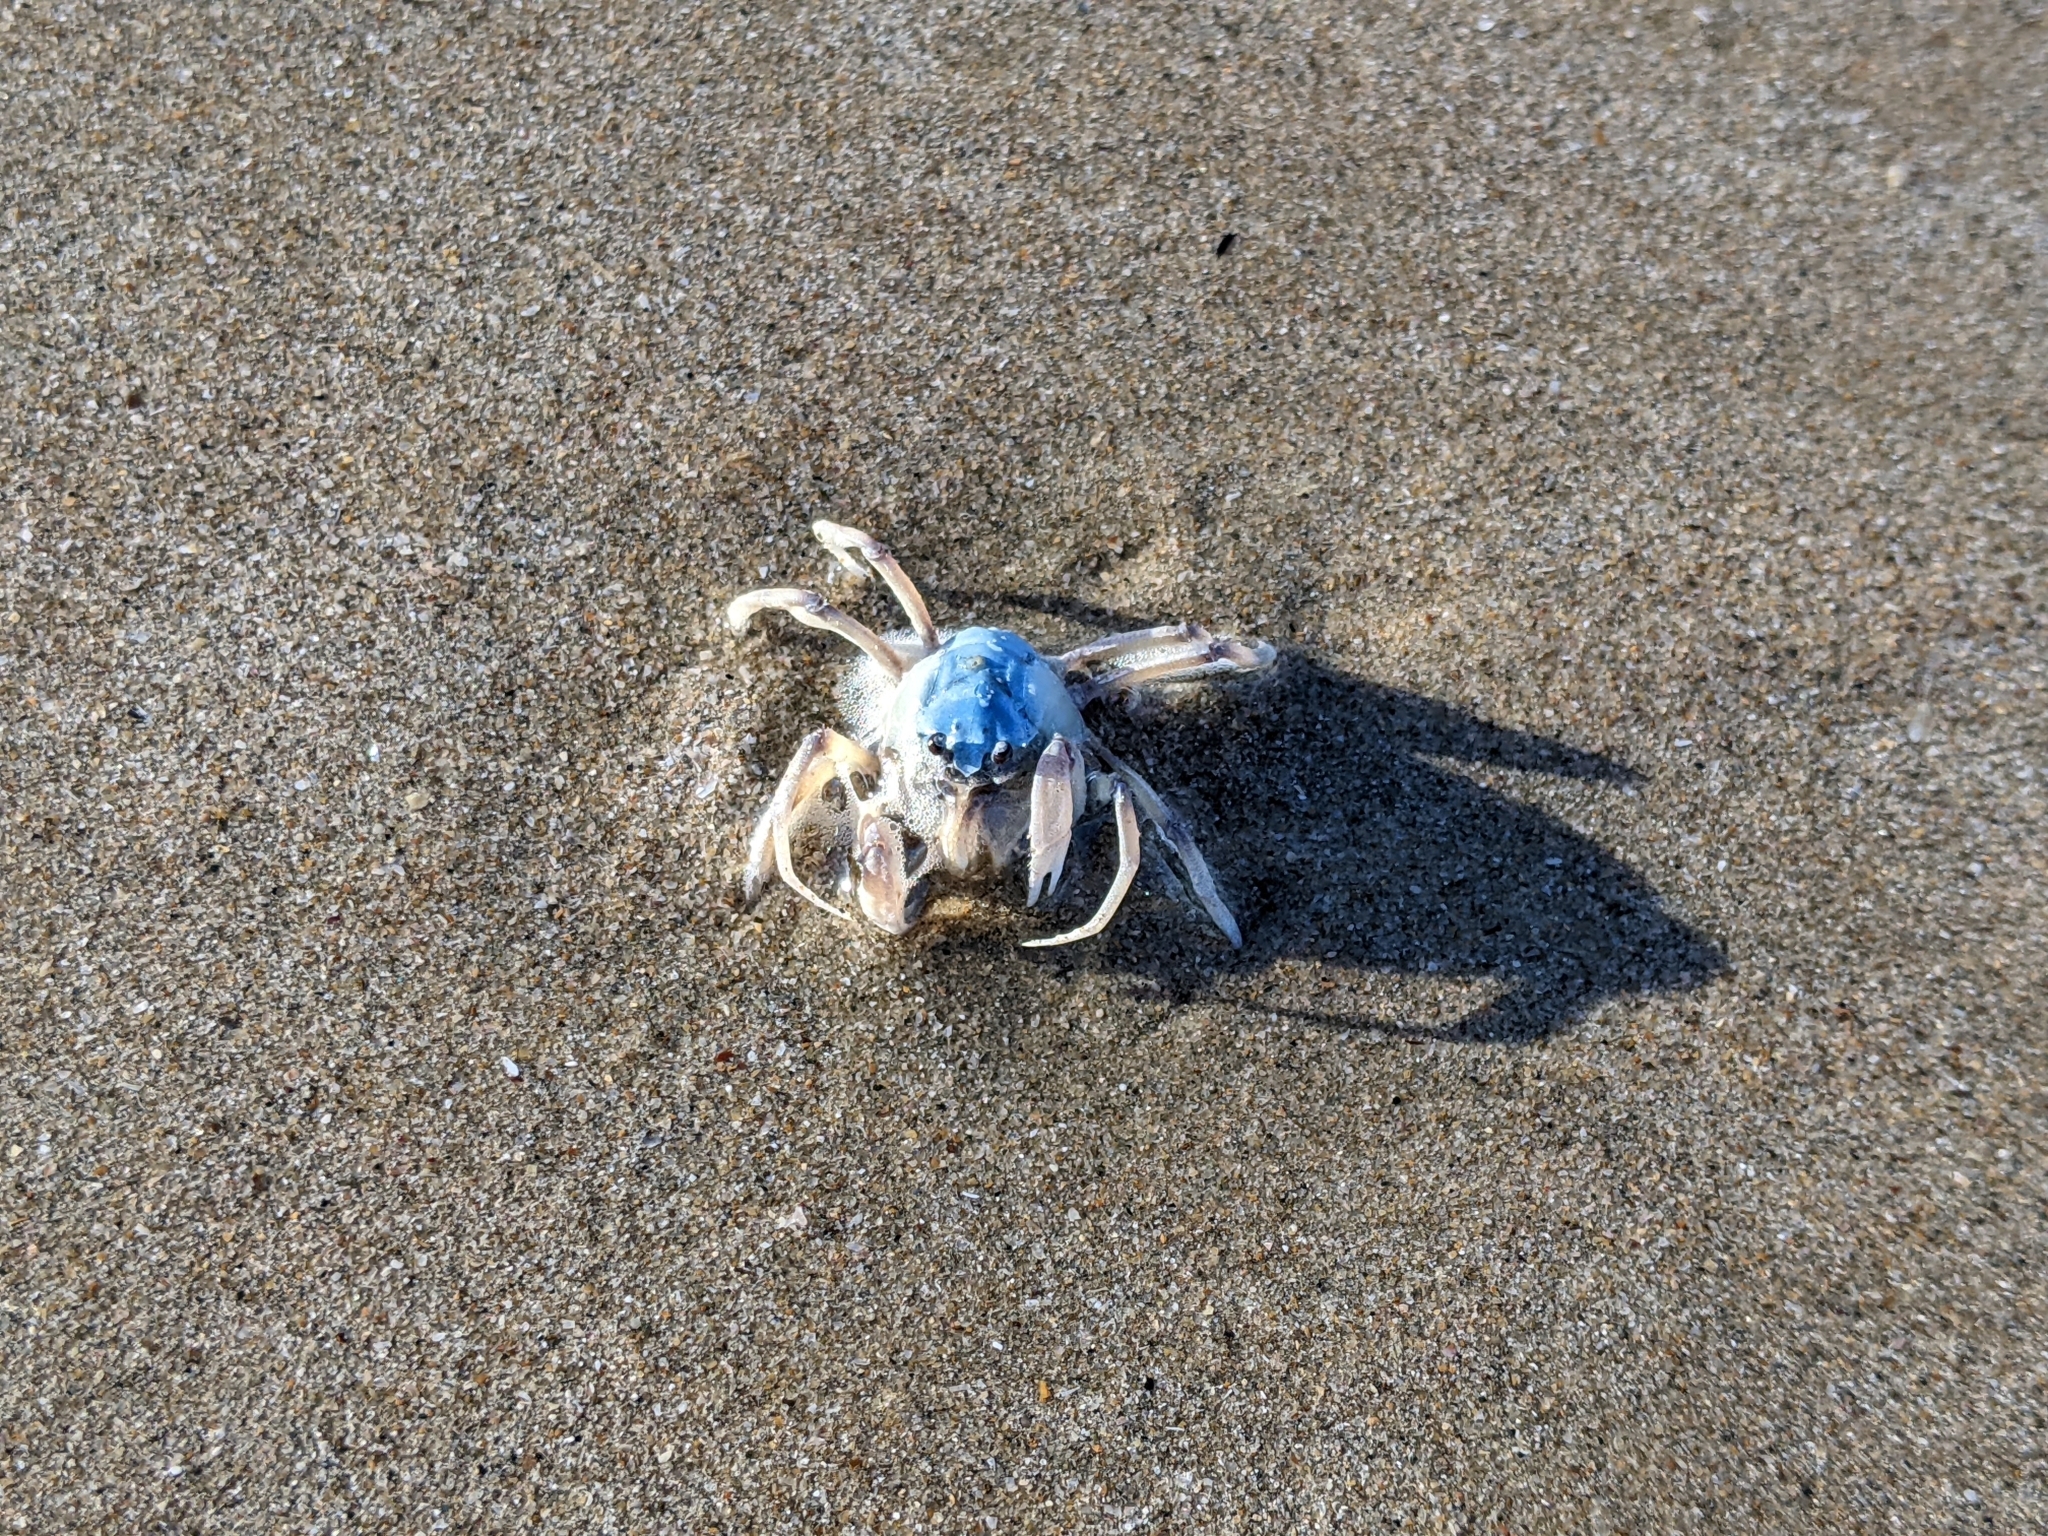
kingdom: Animalia
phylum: Arthropoda
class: Malacostraca
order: Decapoda
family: Mictyridae
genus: Mictyris
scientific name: Mictyris longicarpus
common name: Light-blue soldier crab
